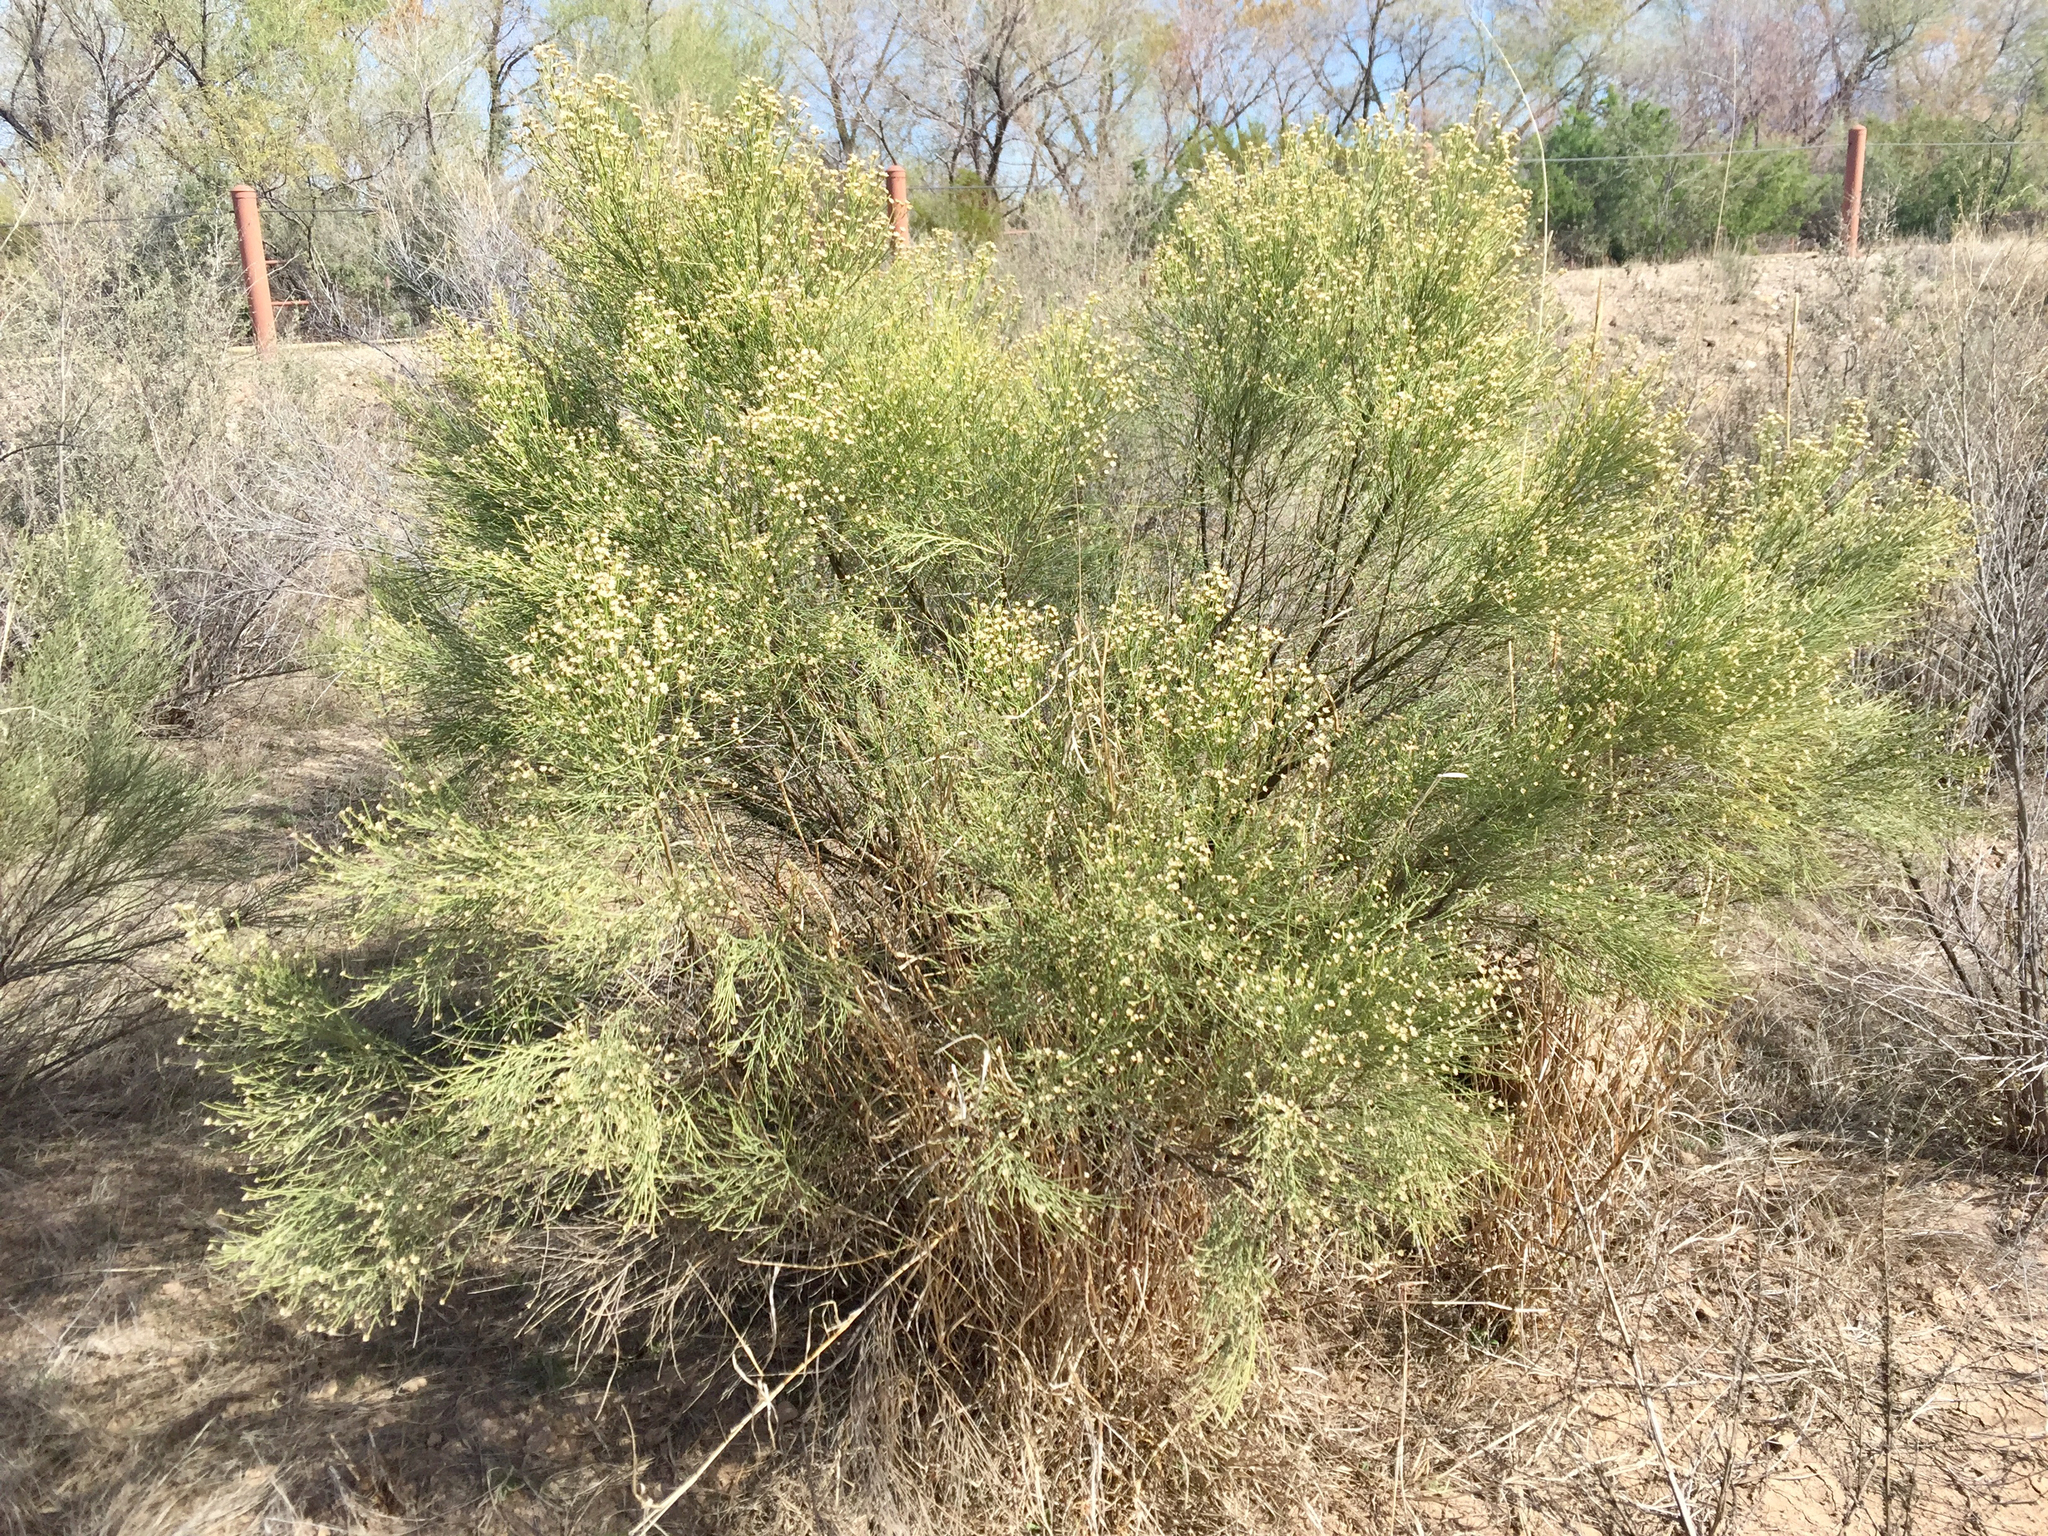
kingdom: Plantae
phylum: Tracheophyta
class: Magnoliopsida
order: Asterales
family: Asteraceae
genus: Baccharis
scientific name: Baccharis sarothroides
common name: Desert-broom
